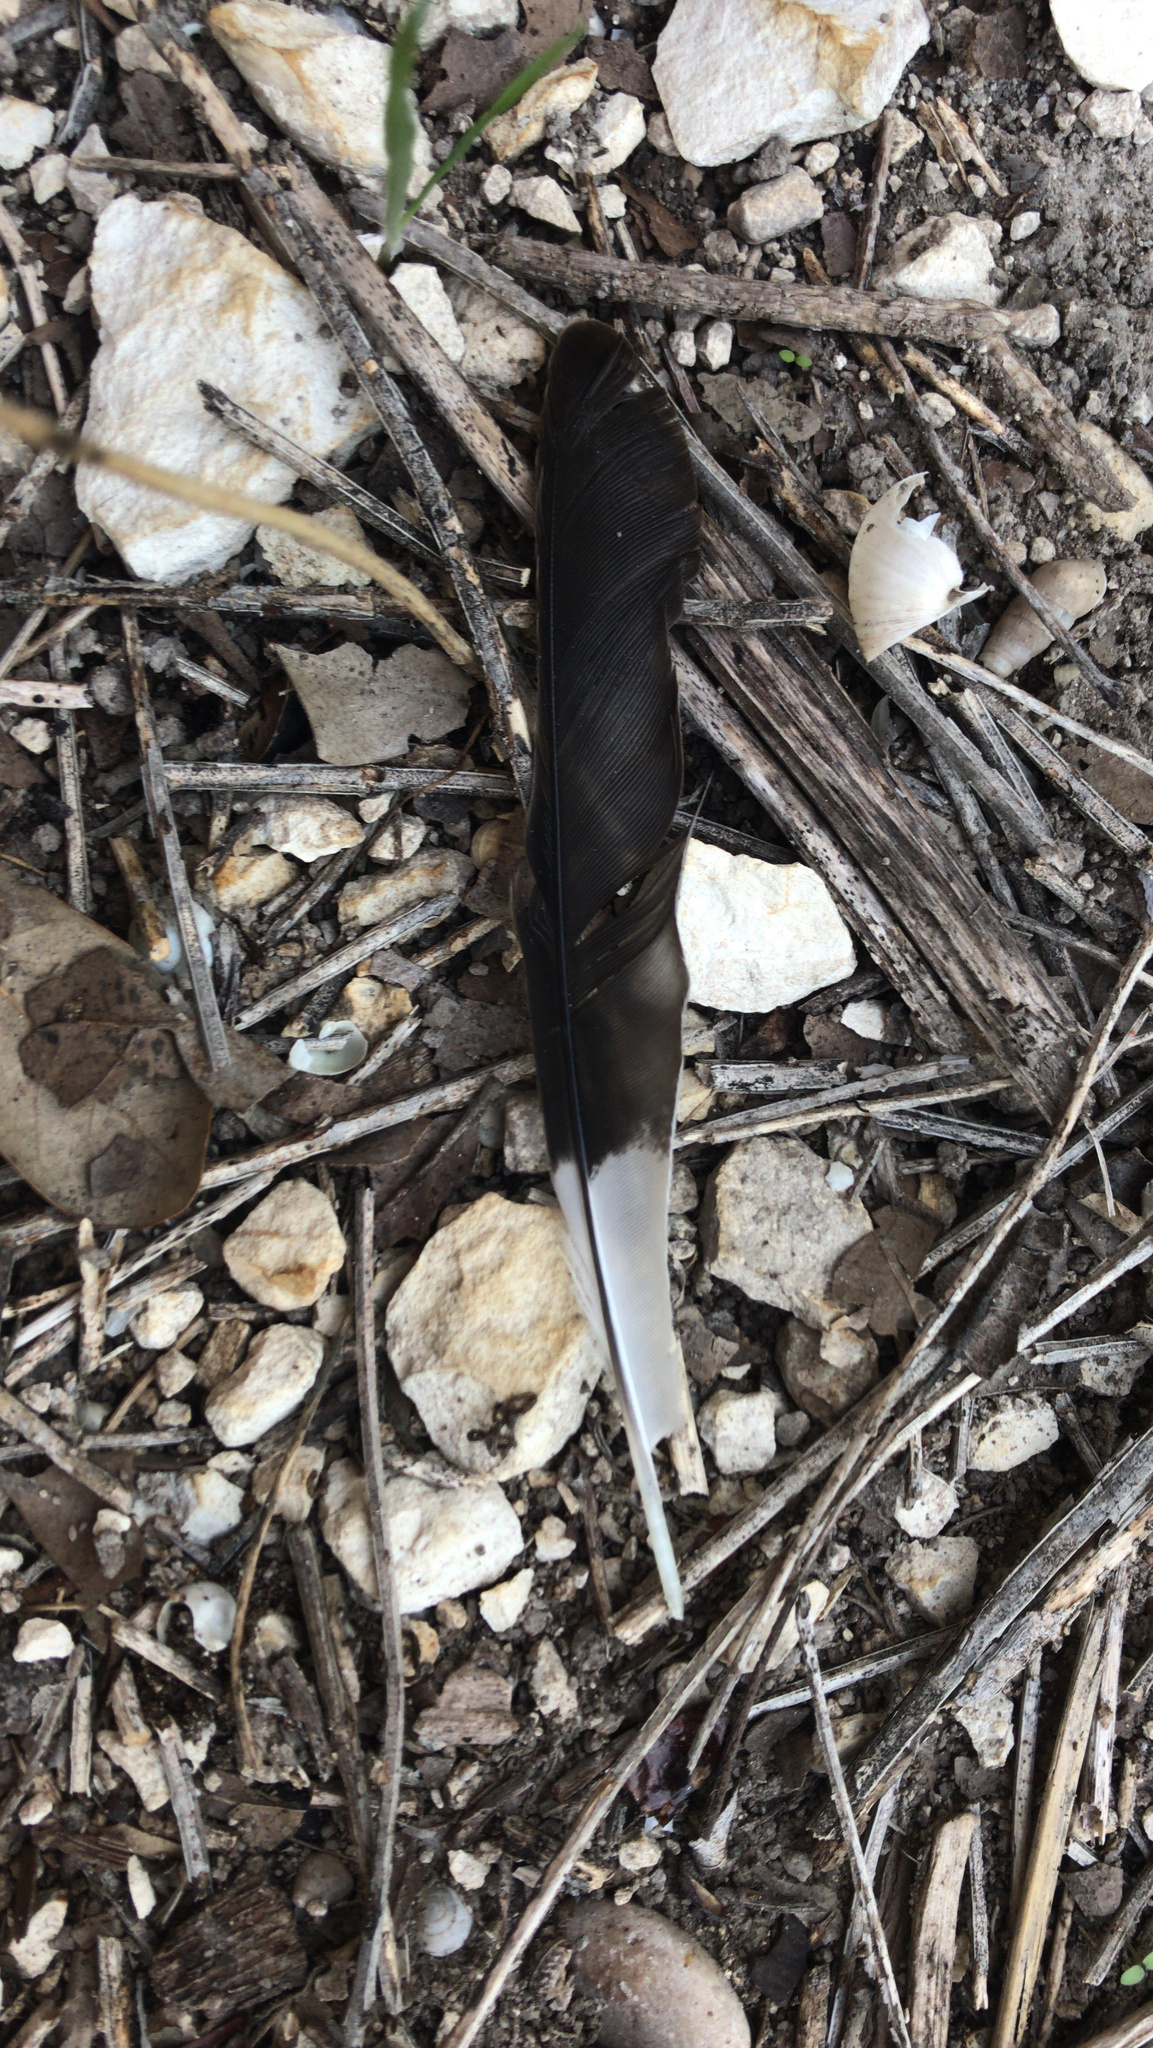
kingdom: Animalia
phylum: Chordata
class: Aves
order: Passeriformes
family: Mimidae
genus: Mimus
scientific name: Mimus polyglottos
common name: Northern mockingbird
